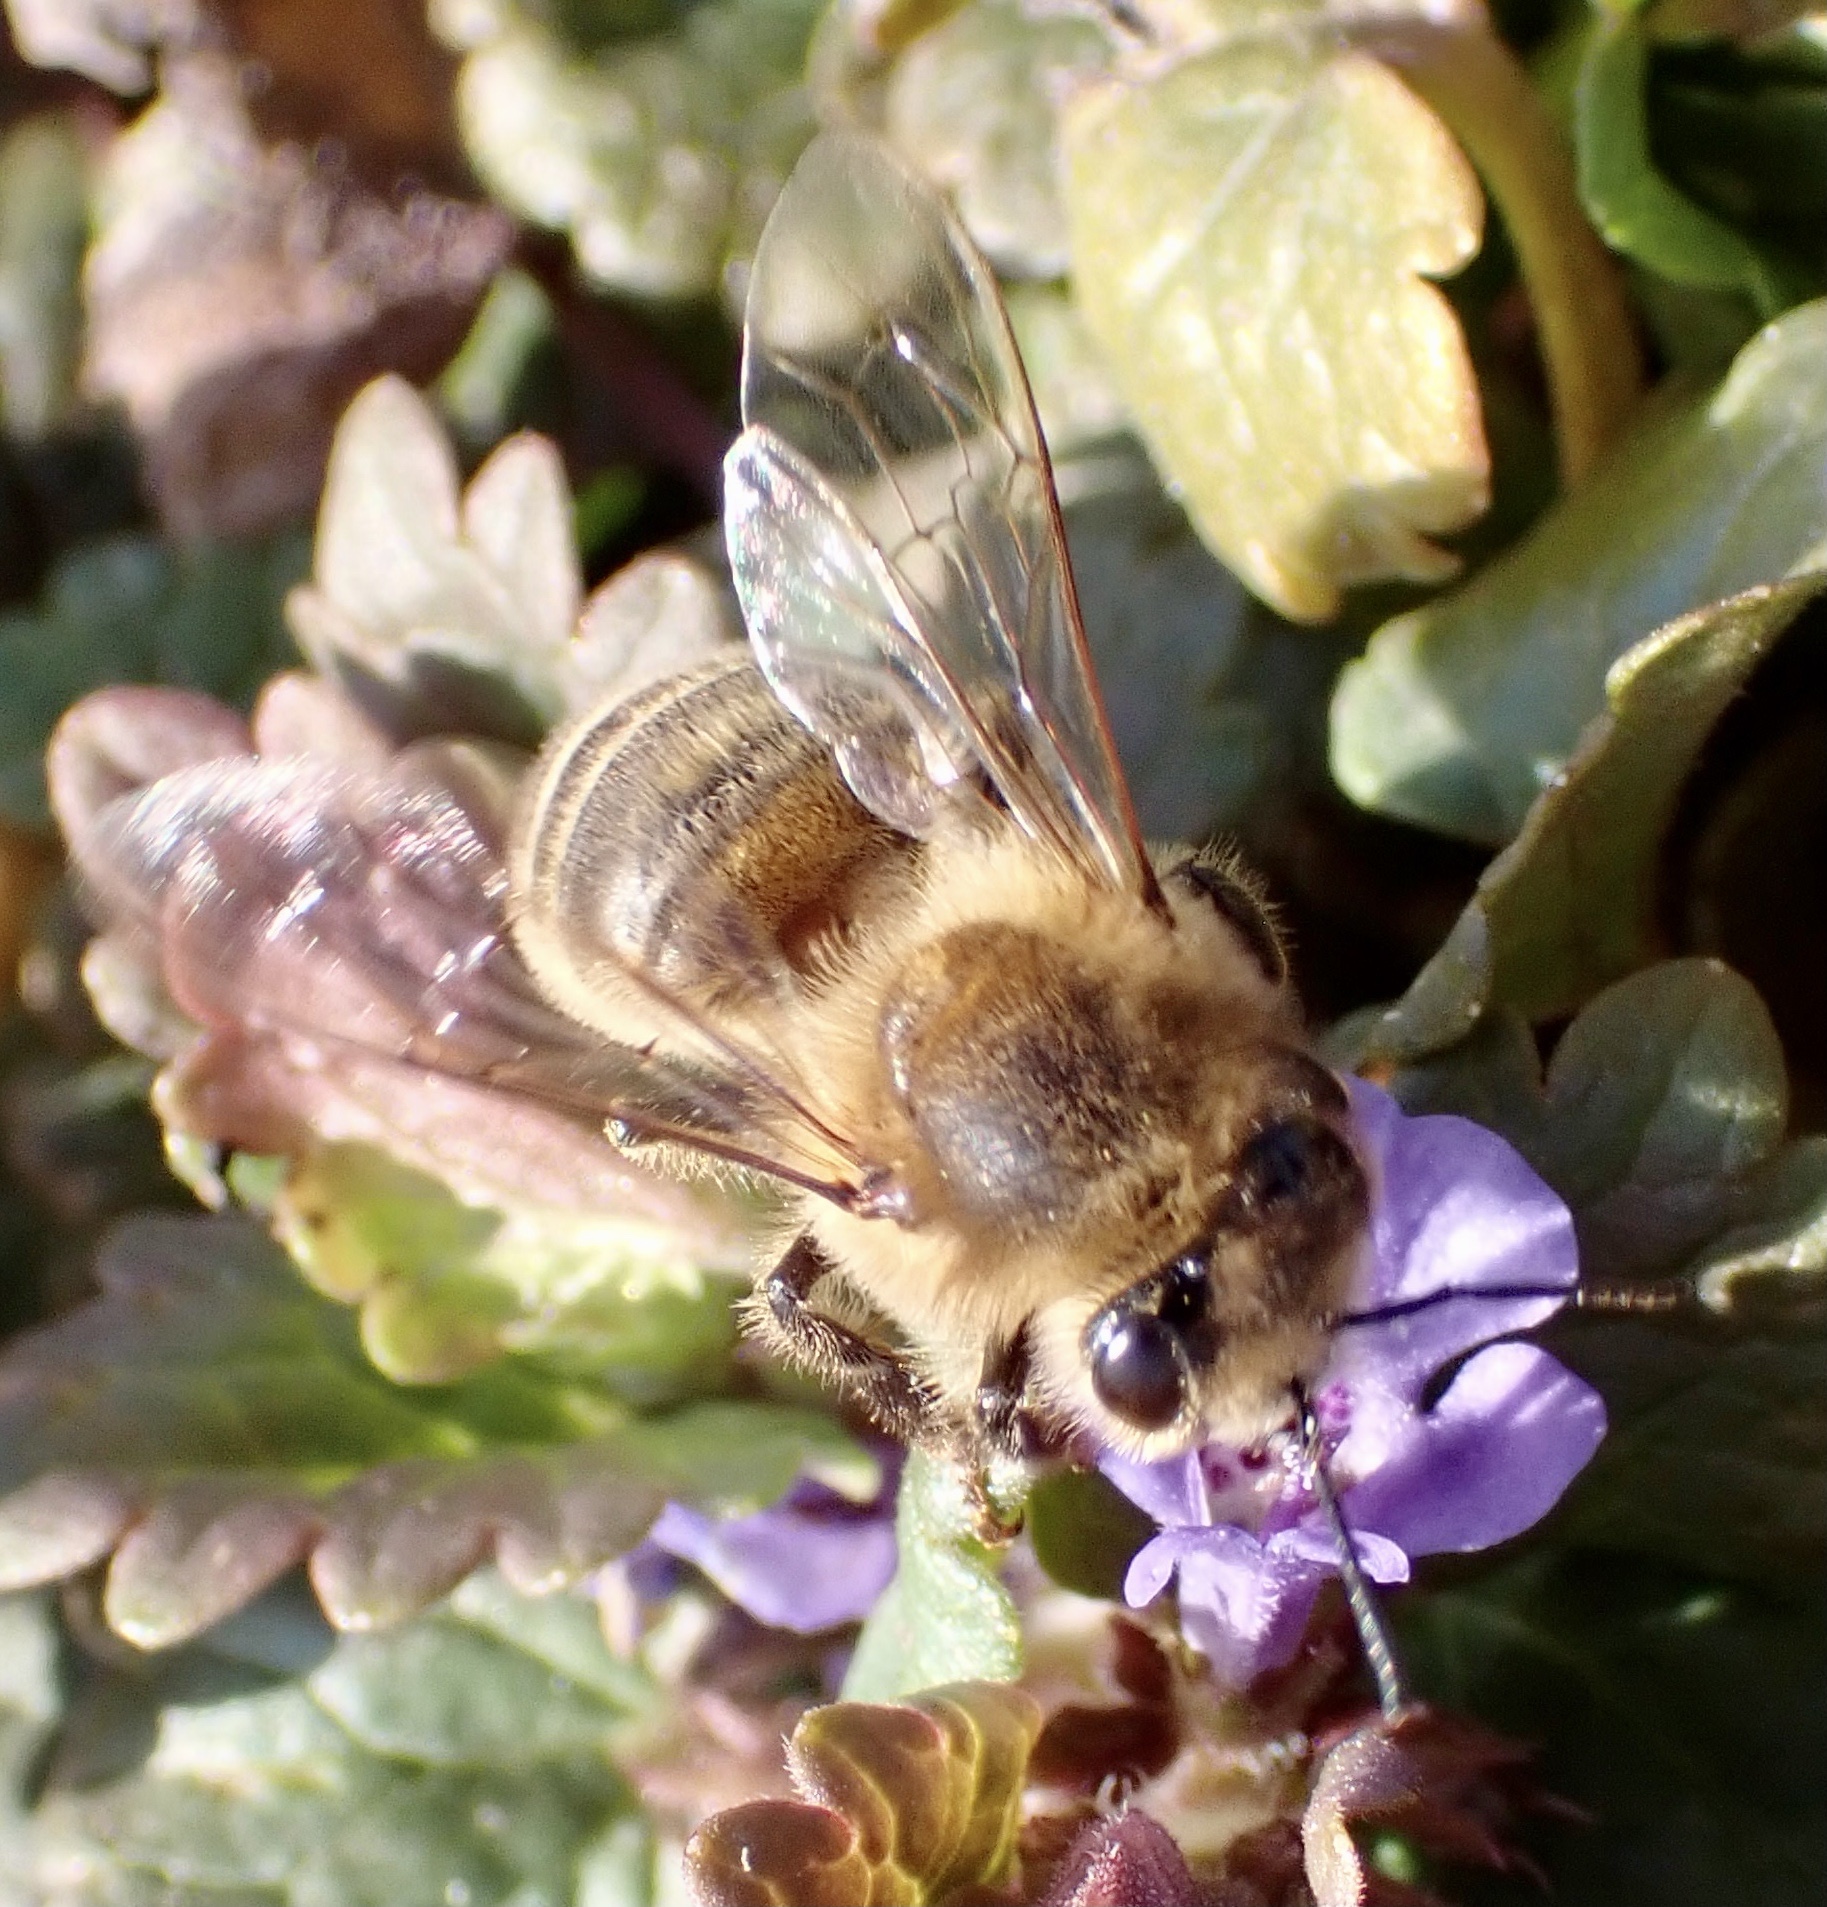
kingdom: Animalia
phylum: Arthropoda
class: Insecta
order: Hymenoptera
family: Apidae
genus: Apis
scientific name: Apis mellifera
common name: Honey bee
